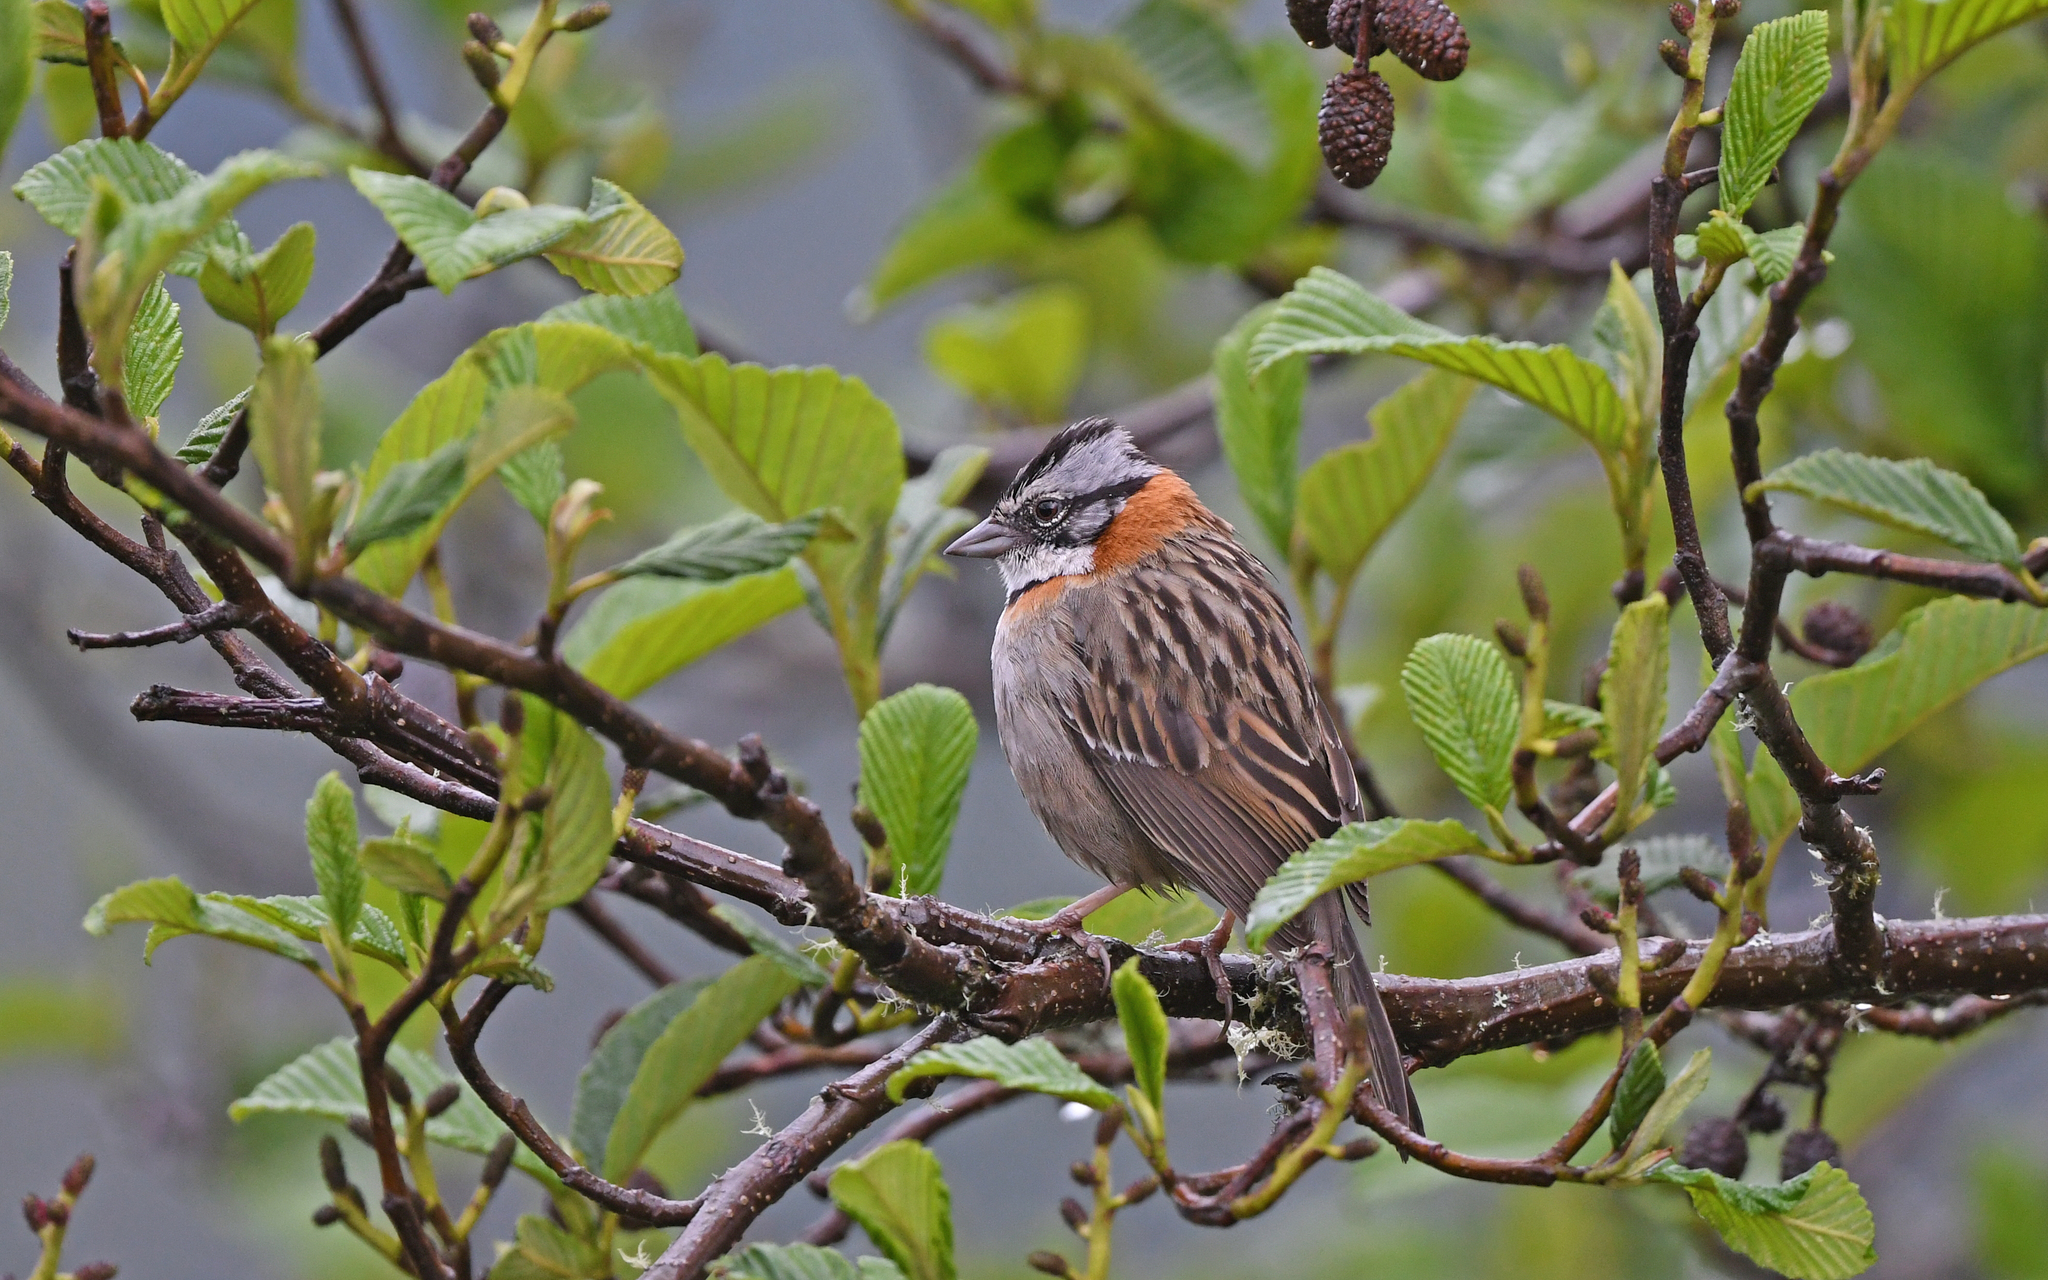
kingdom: Animalia
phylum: Chordata
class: Aves
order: Passeriformes
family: Passerellidae
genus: Zonotrichia
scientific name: Zonotrichia capensis
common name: Rufous-collared sparrow
